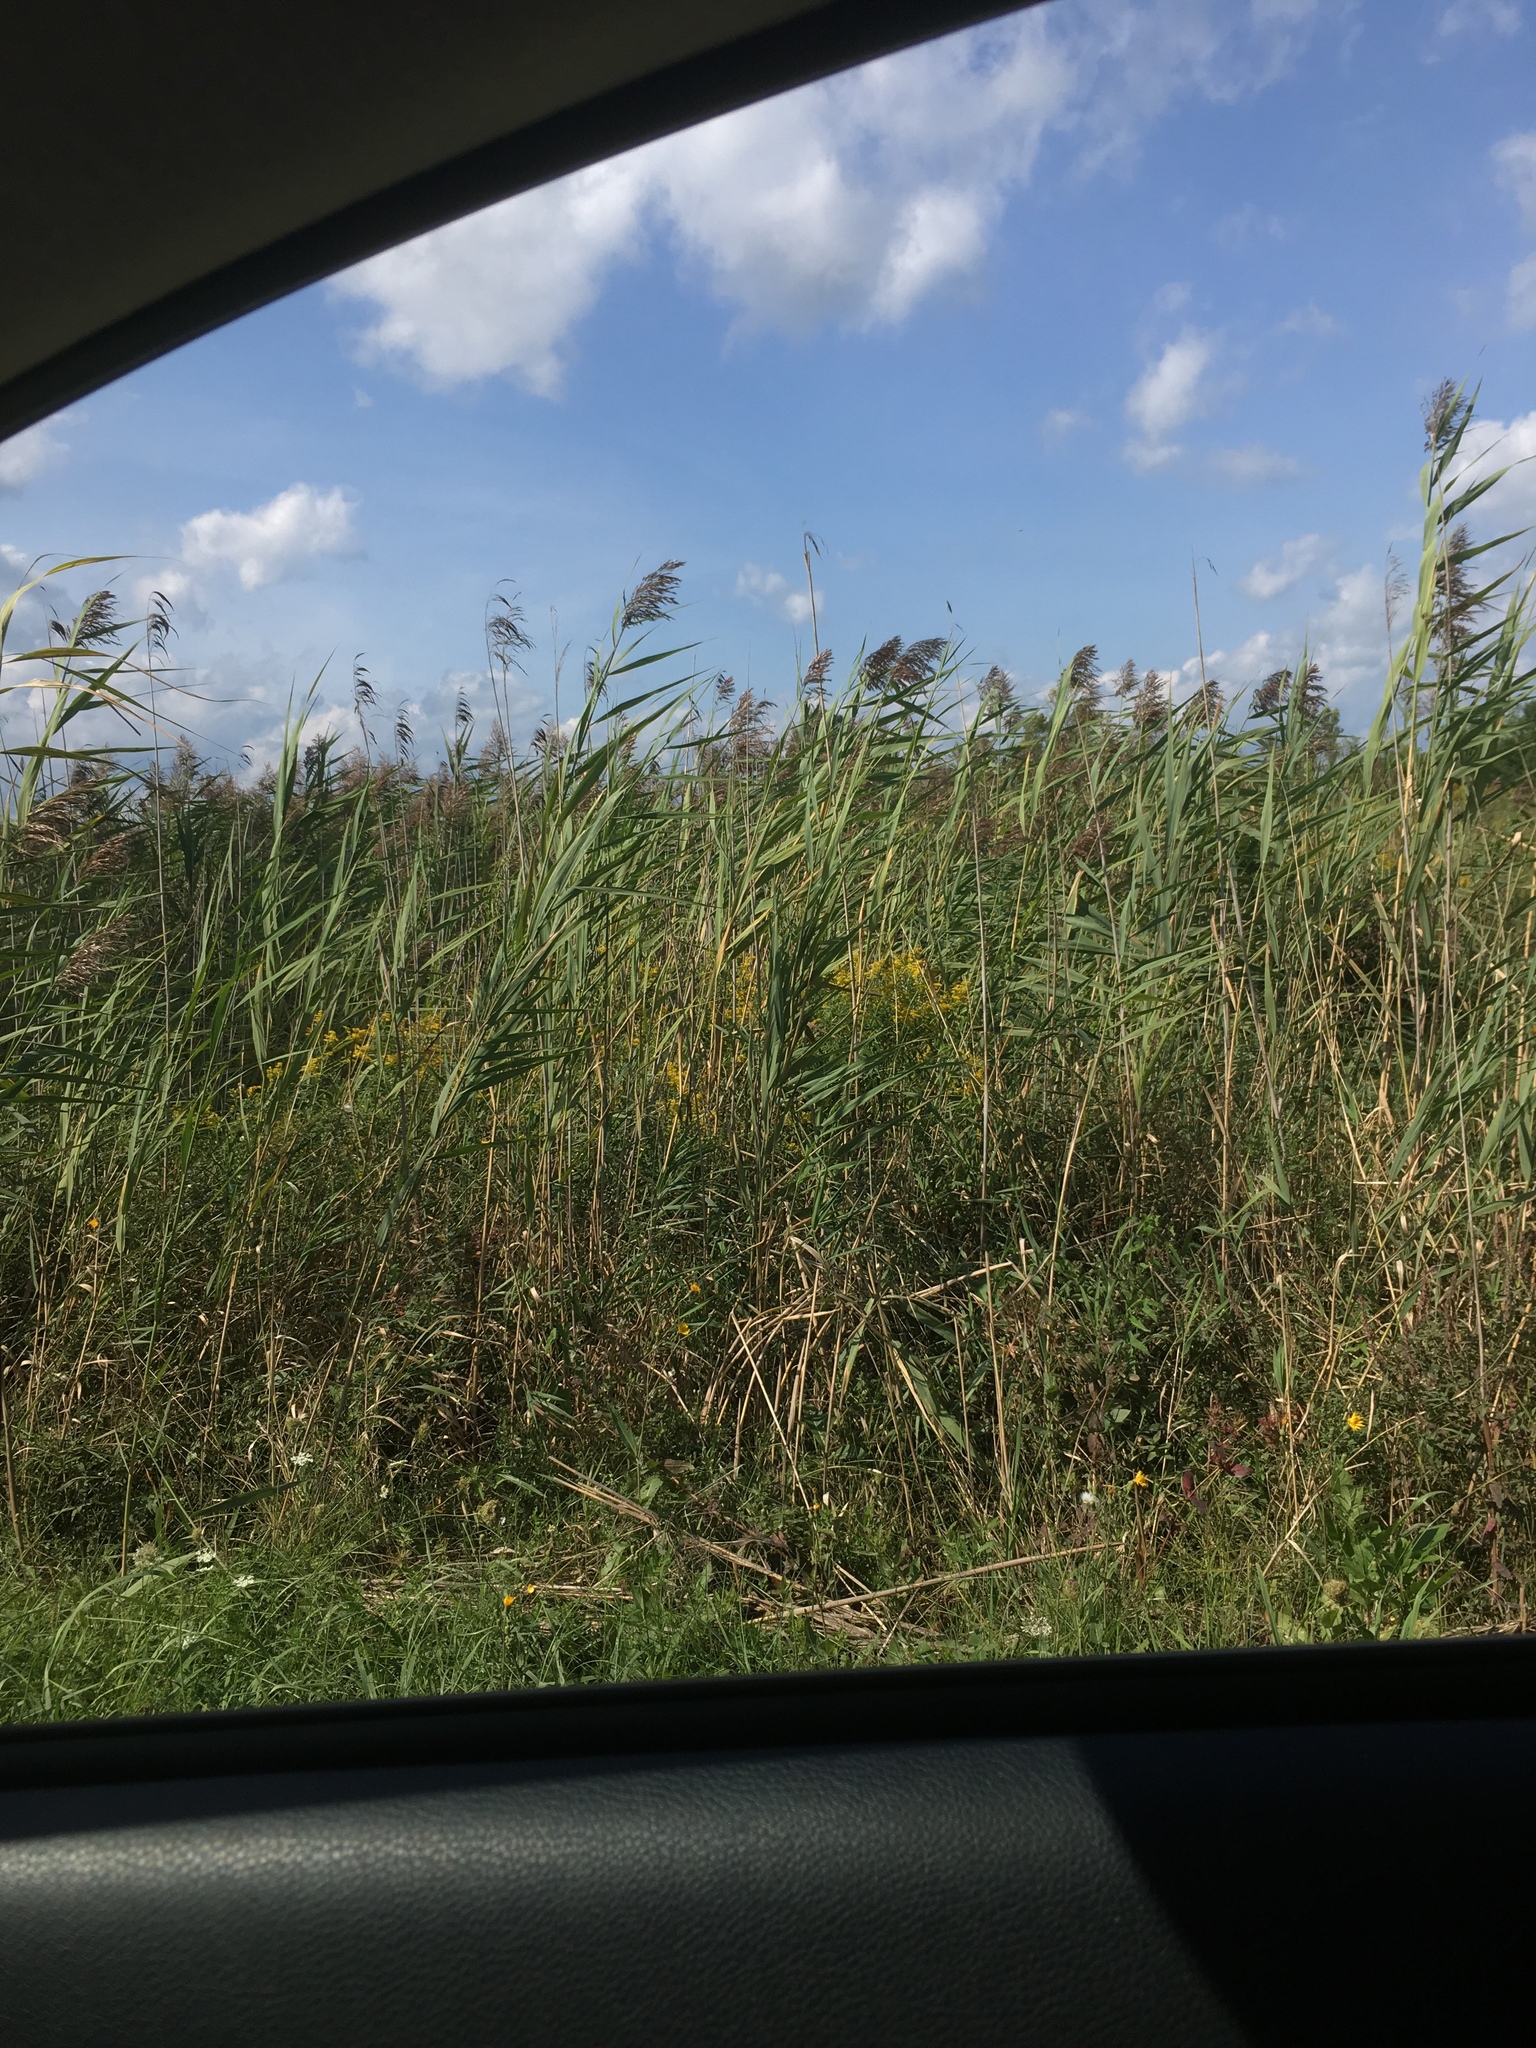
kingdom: Plantae
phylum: Tracheophyta
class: Liliopsida
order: Poales
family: Poaceae
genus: Phragmites
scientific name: Phragmites australis
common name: Common reed
